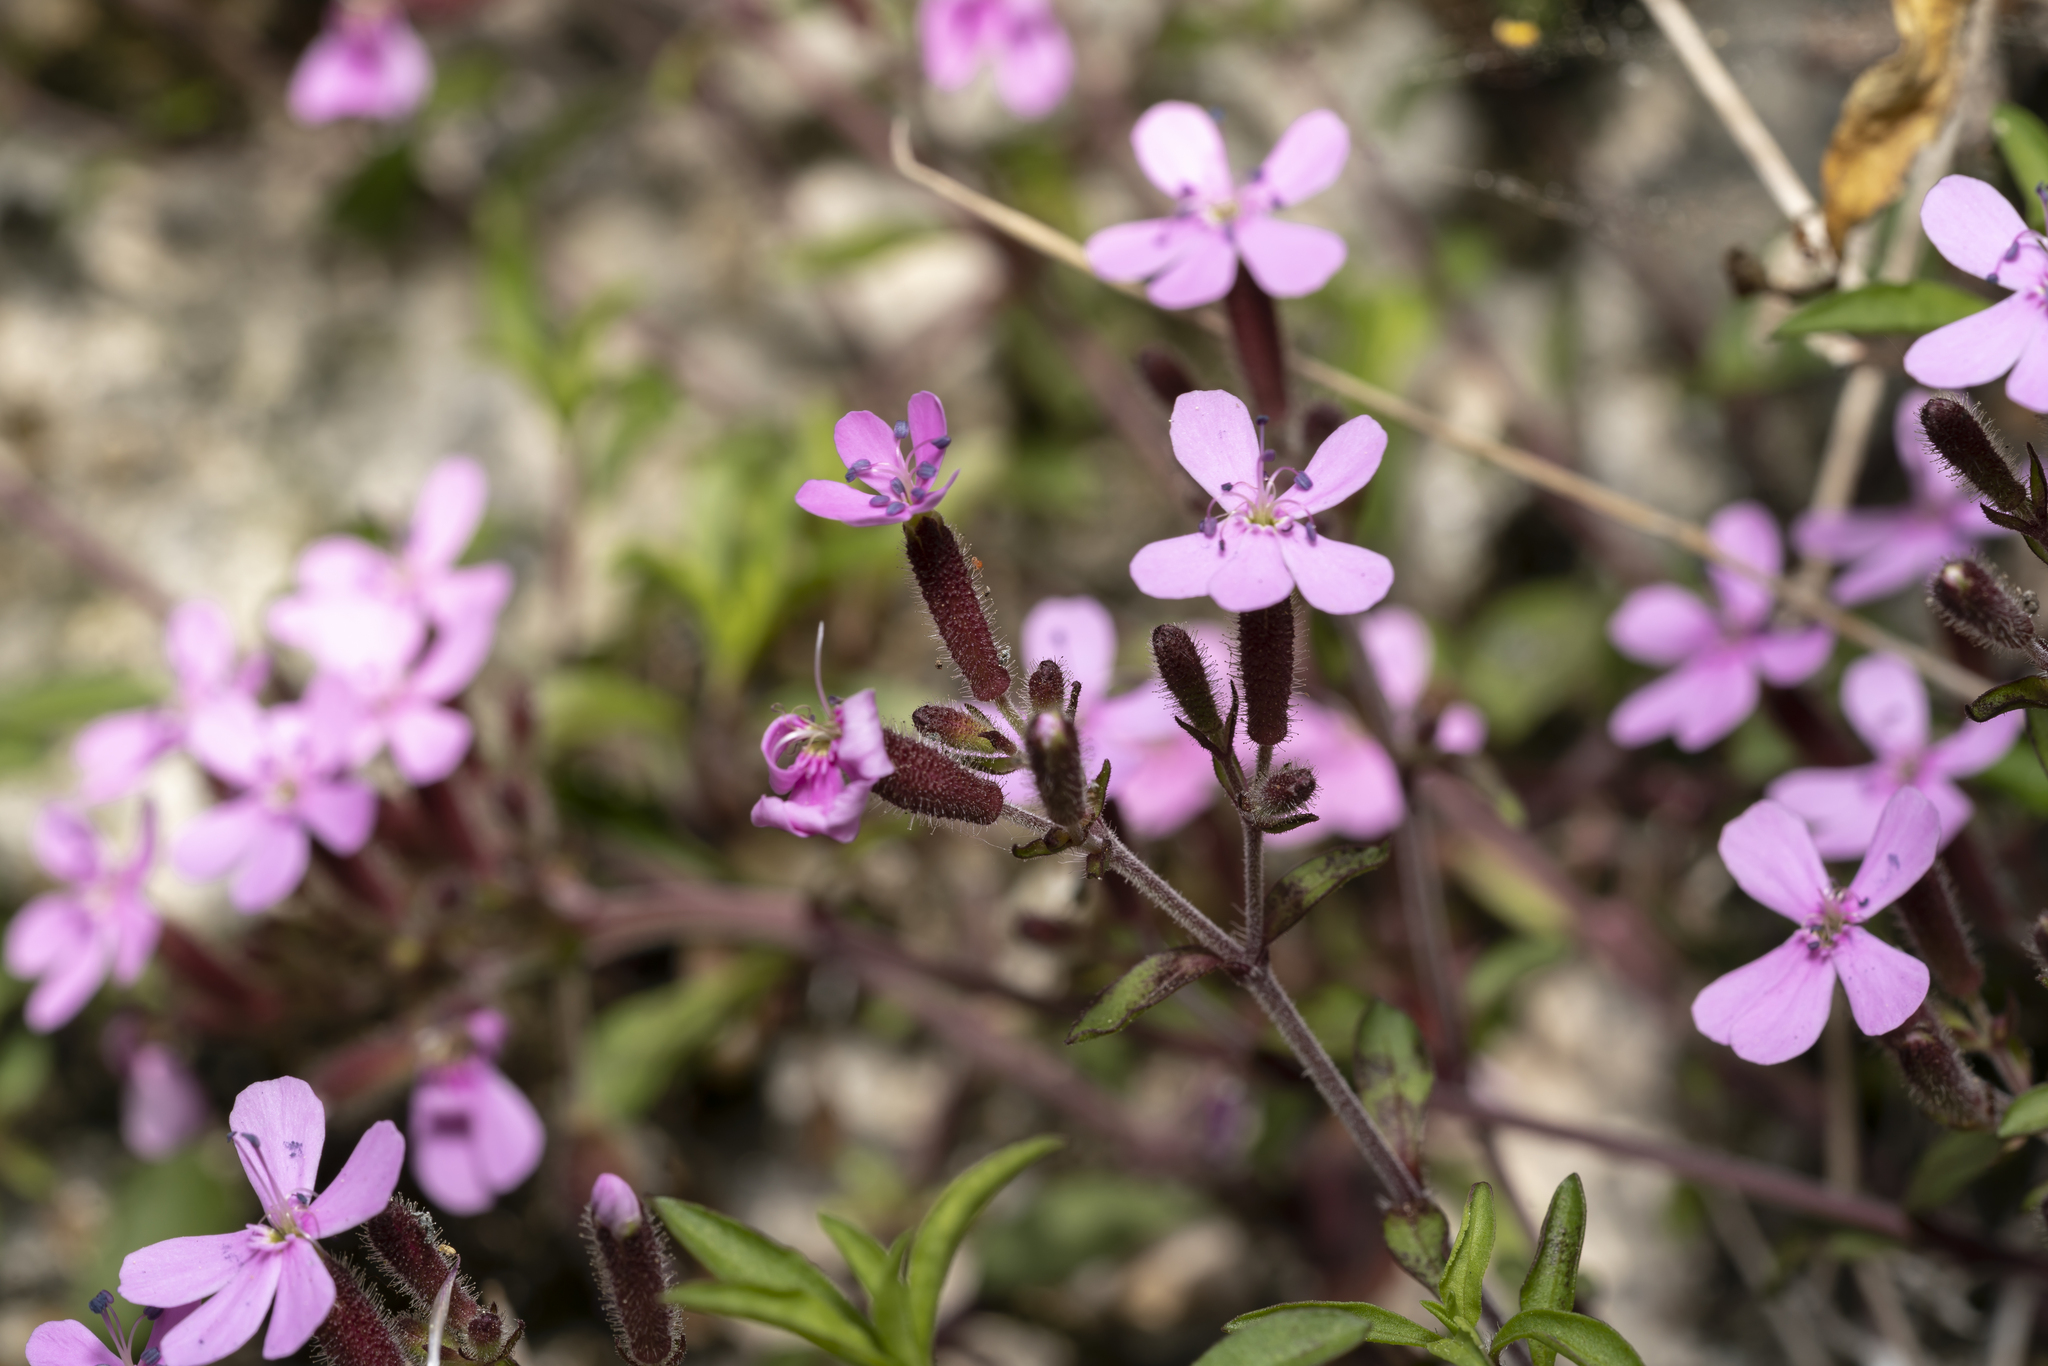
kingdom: Plantae
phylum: Tracheophyta
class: Magnoliopsida
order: Caryophyllales
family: Caryophyllaceae
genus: Saponaria
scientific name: Saponaria ocymoides
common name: Rock soapwort
